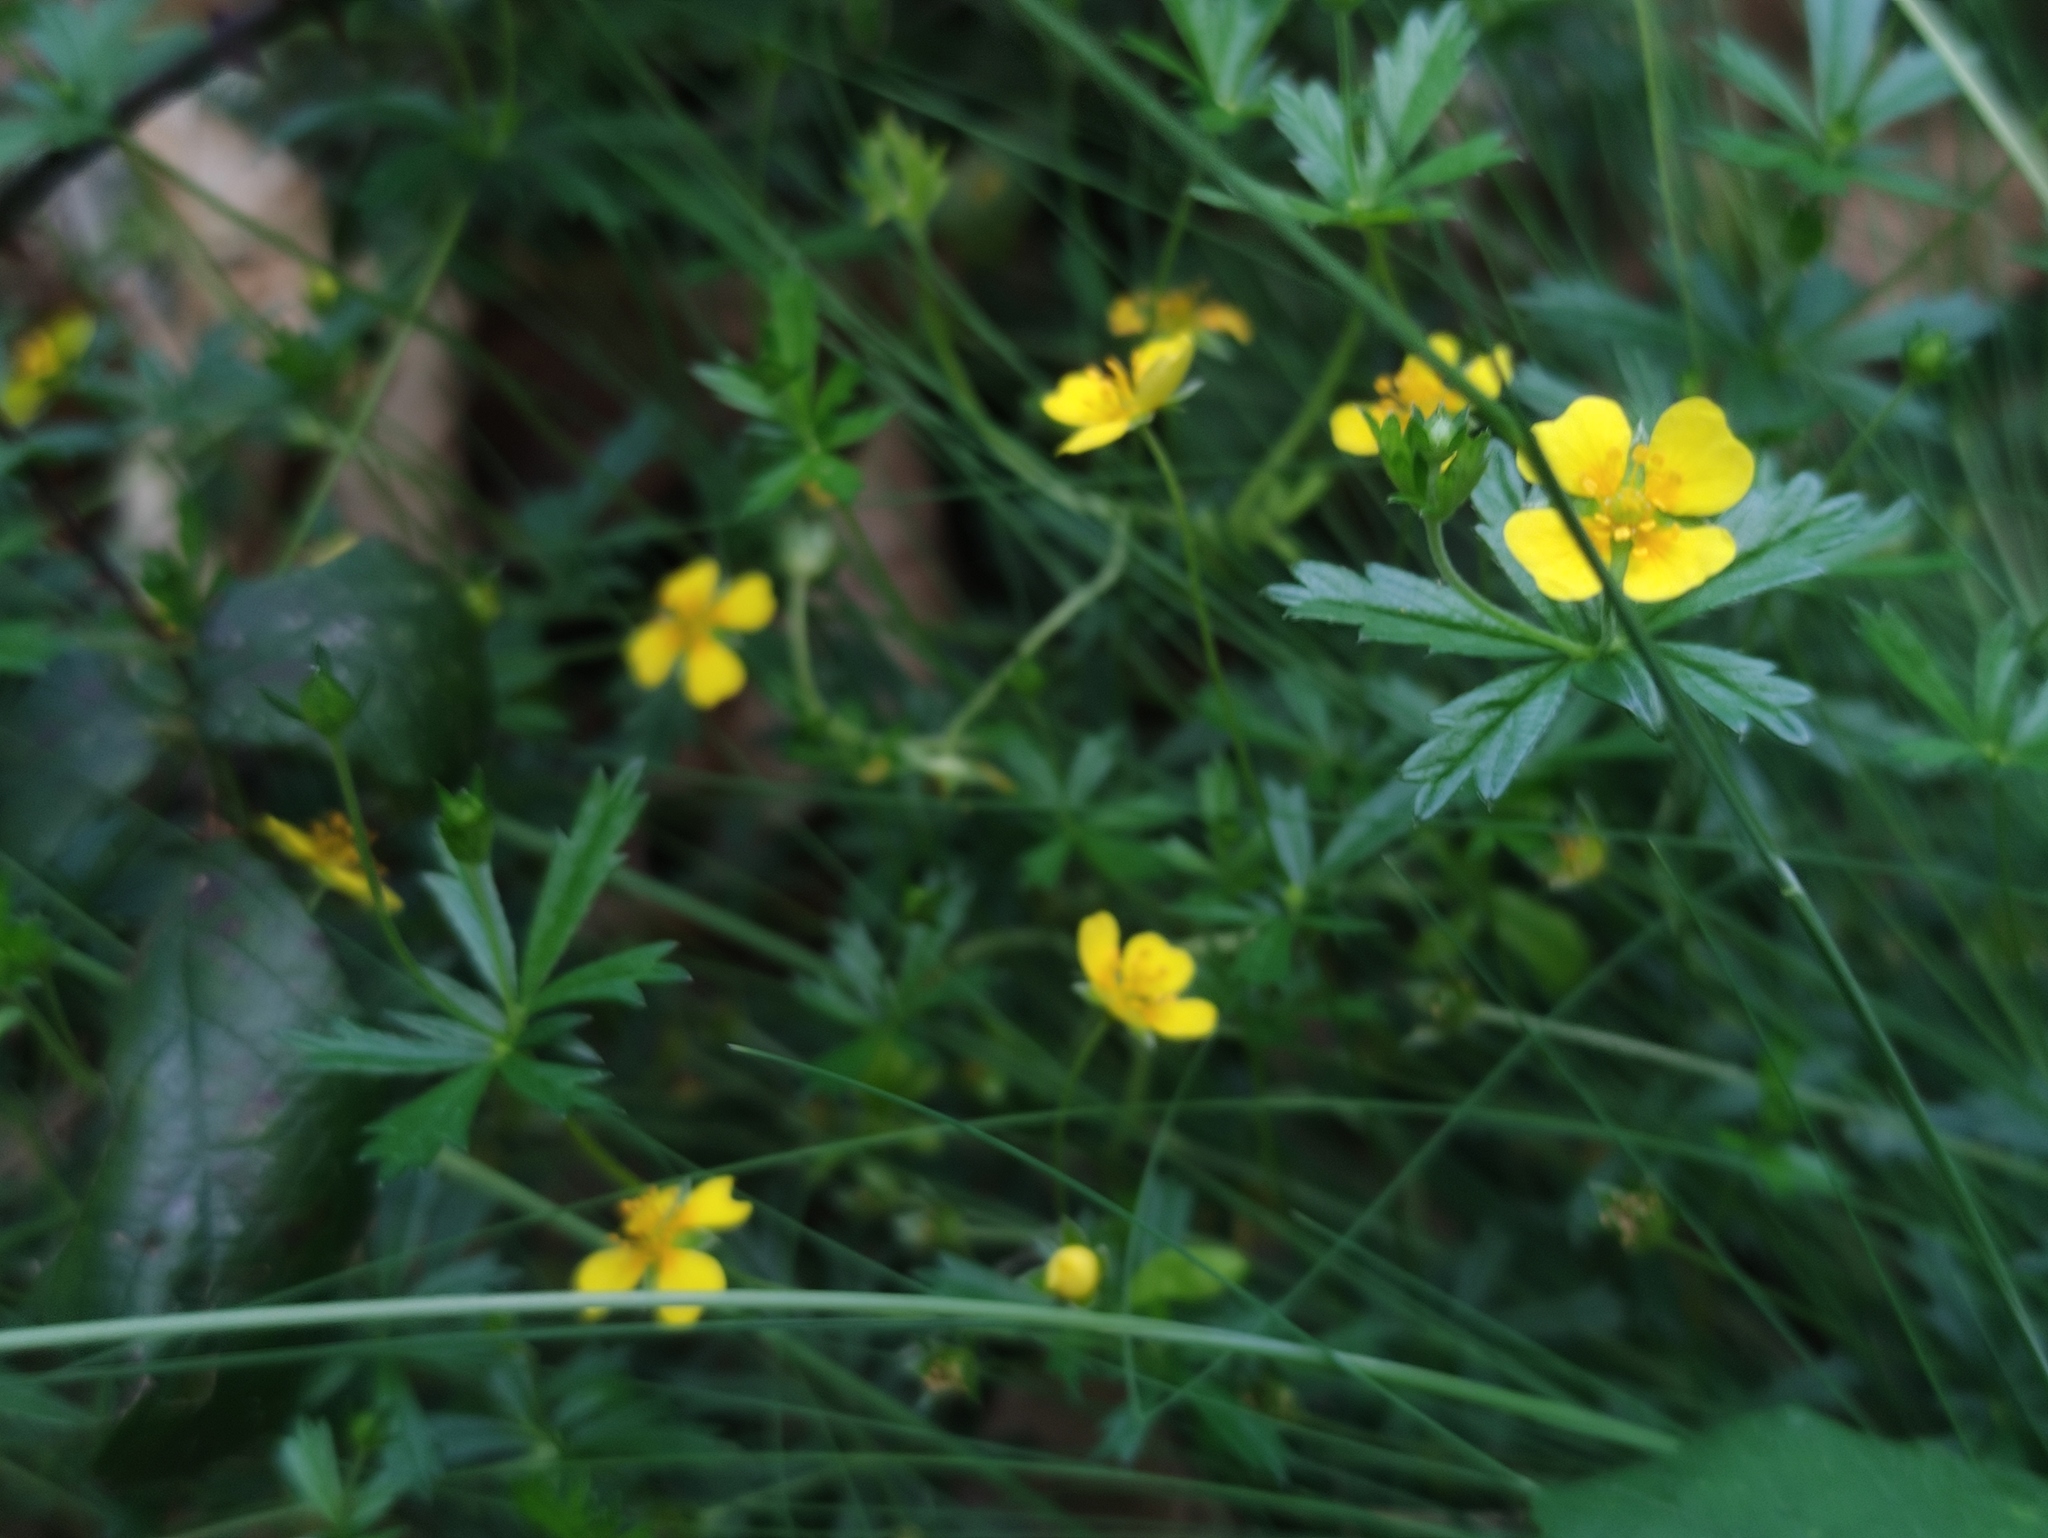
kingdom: Plantae
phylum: Tracheophyta
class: Magnoliopsida
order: Rosales
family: Rosaceae
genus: Potentilla
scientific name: Potentilla erecta
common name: Tormentil
